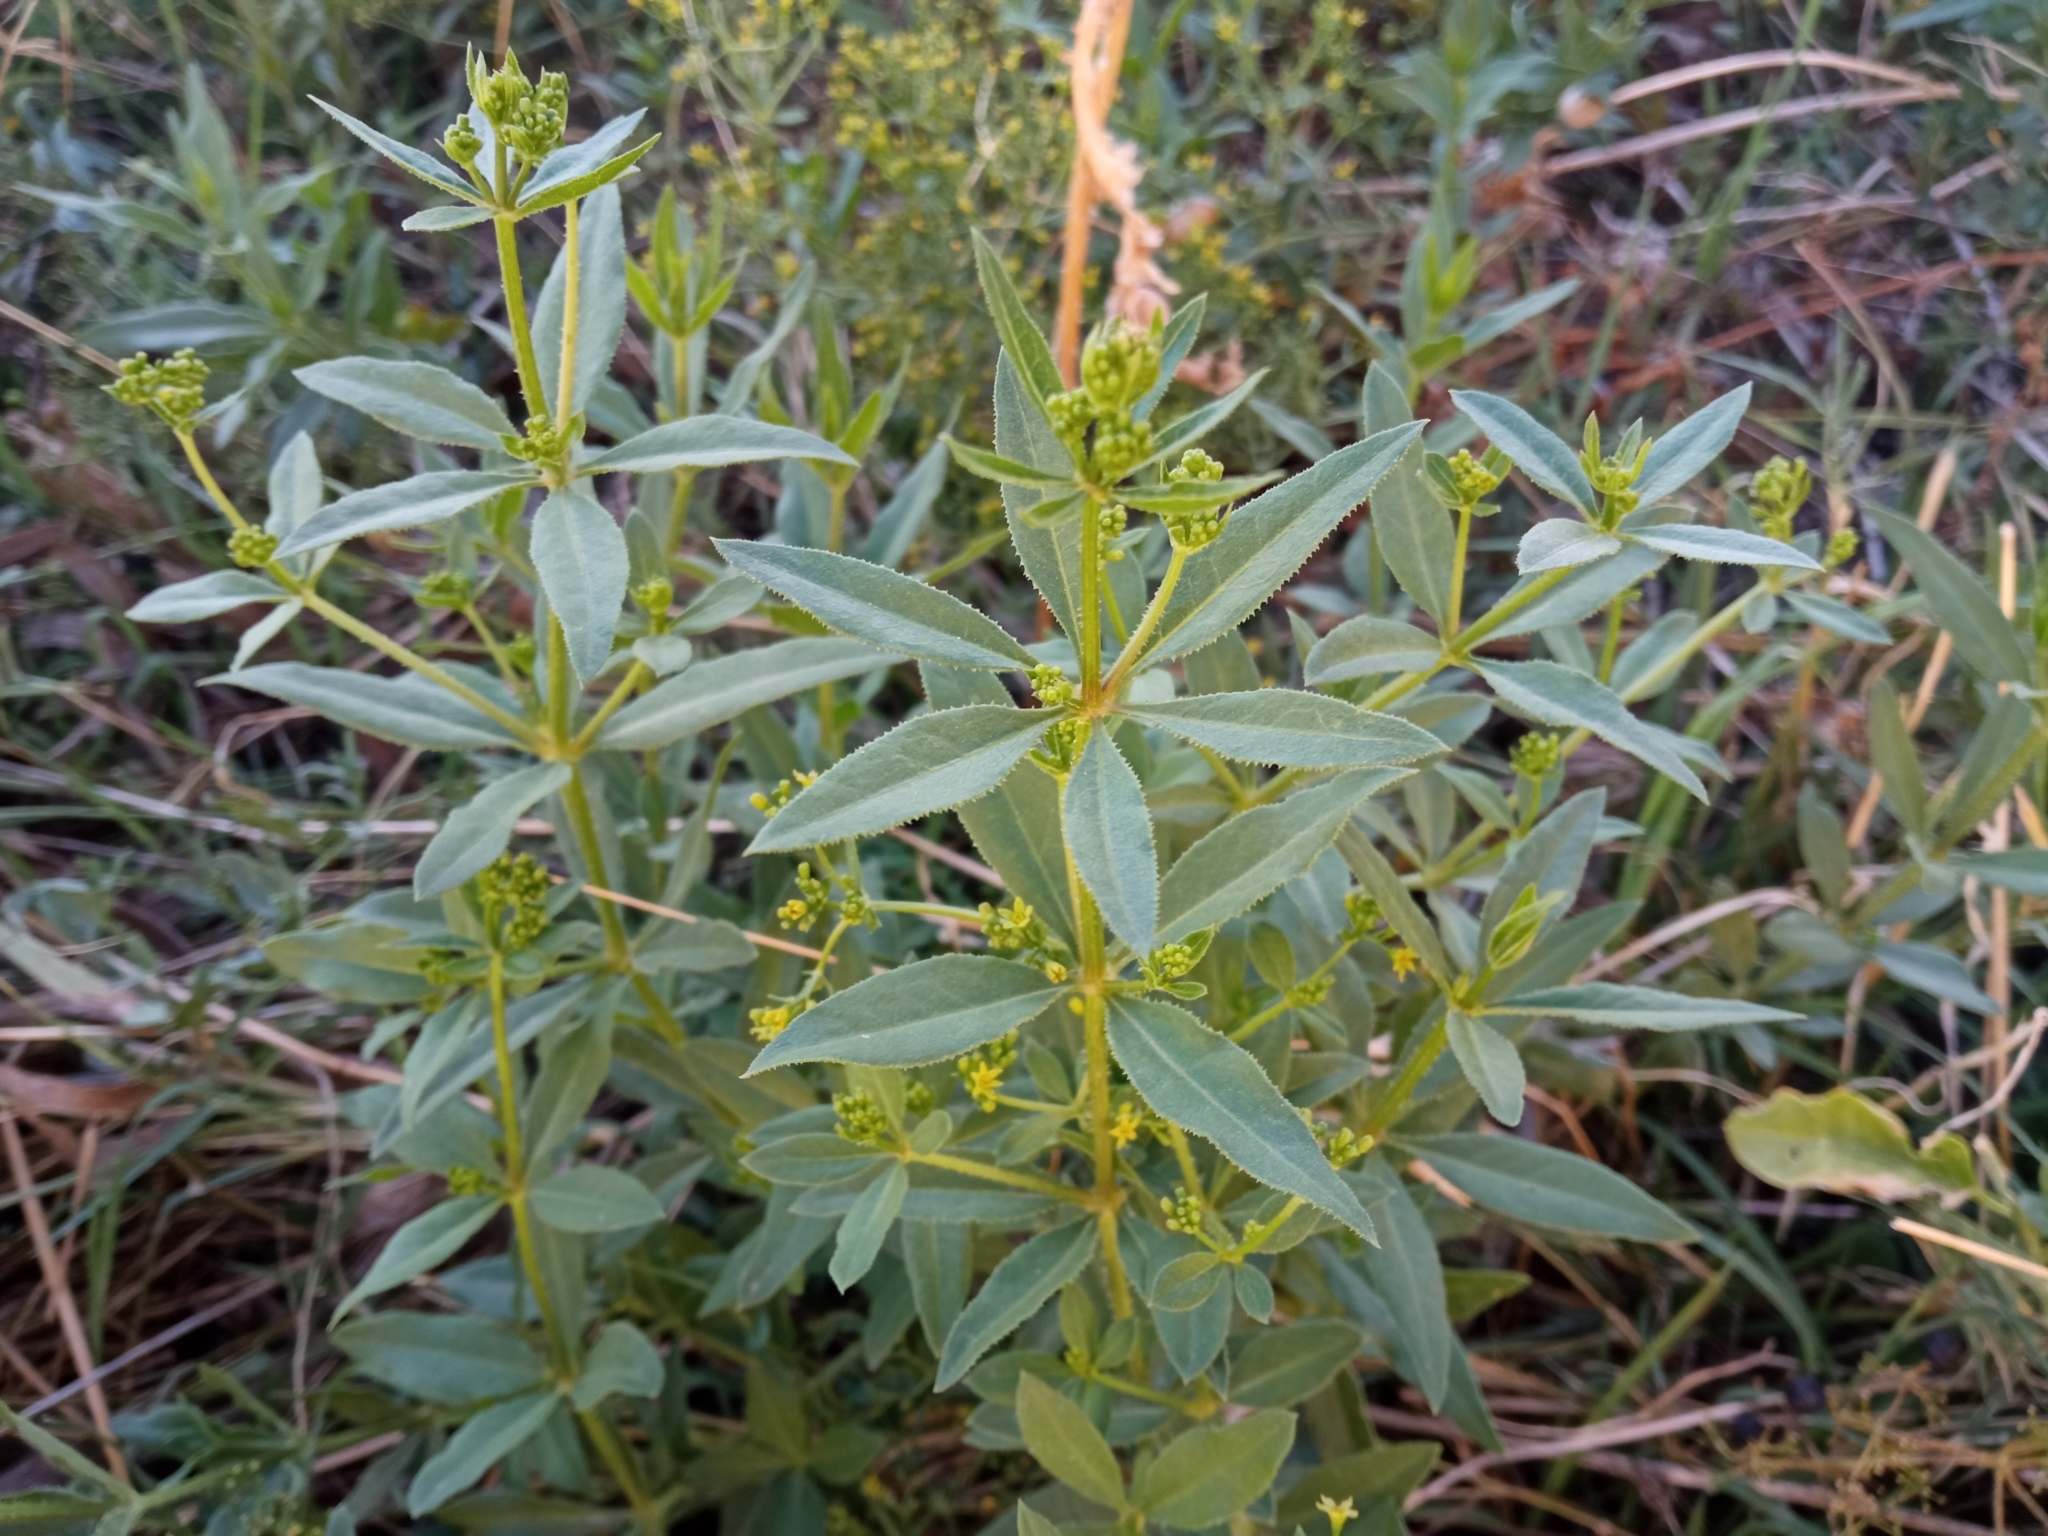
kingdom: Plantae
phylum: Tracheophyta
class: Magnoliopsida
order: Gentianales
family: Rubiaceae
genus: Rubia
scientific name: Rubia tinctorum
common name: Dyer's madder
